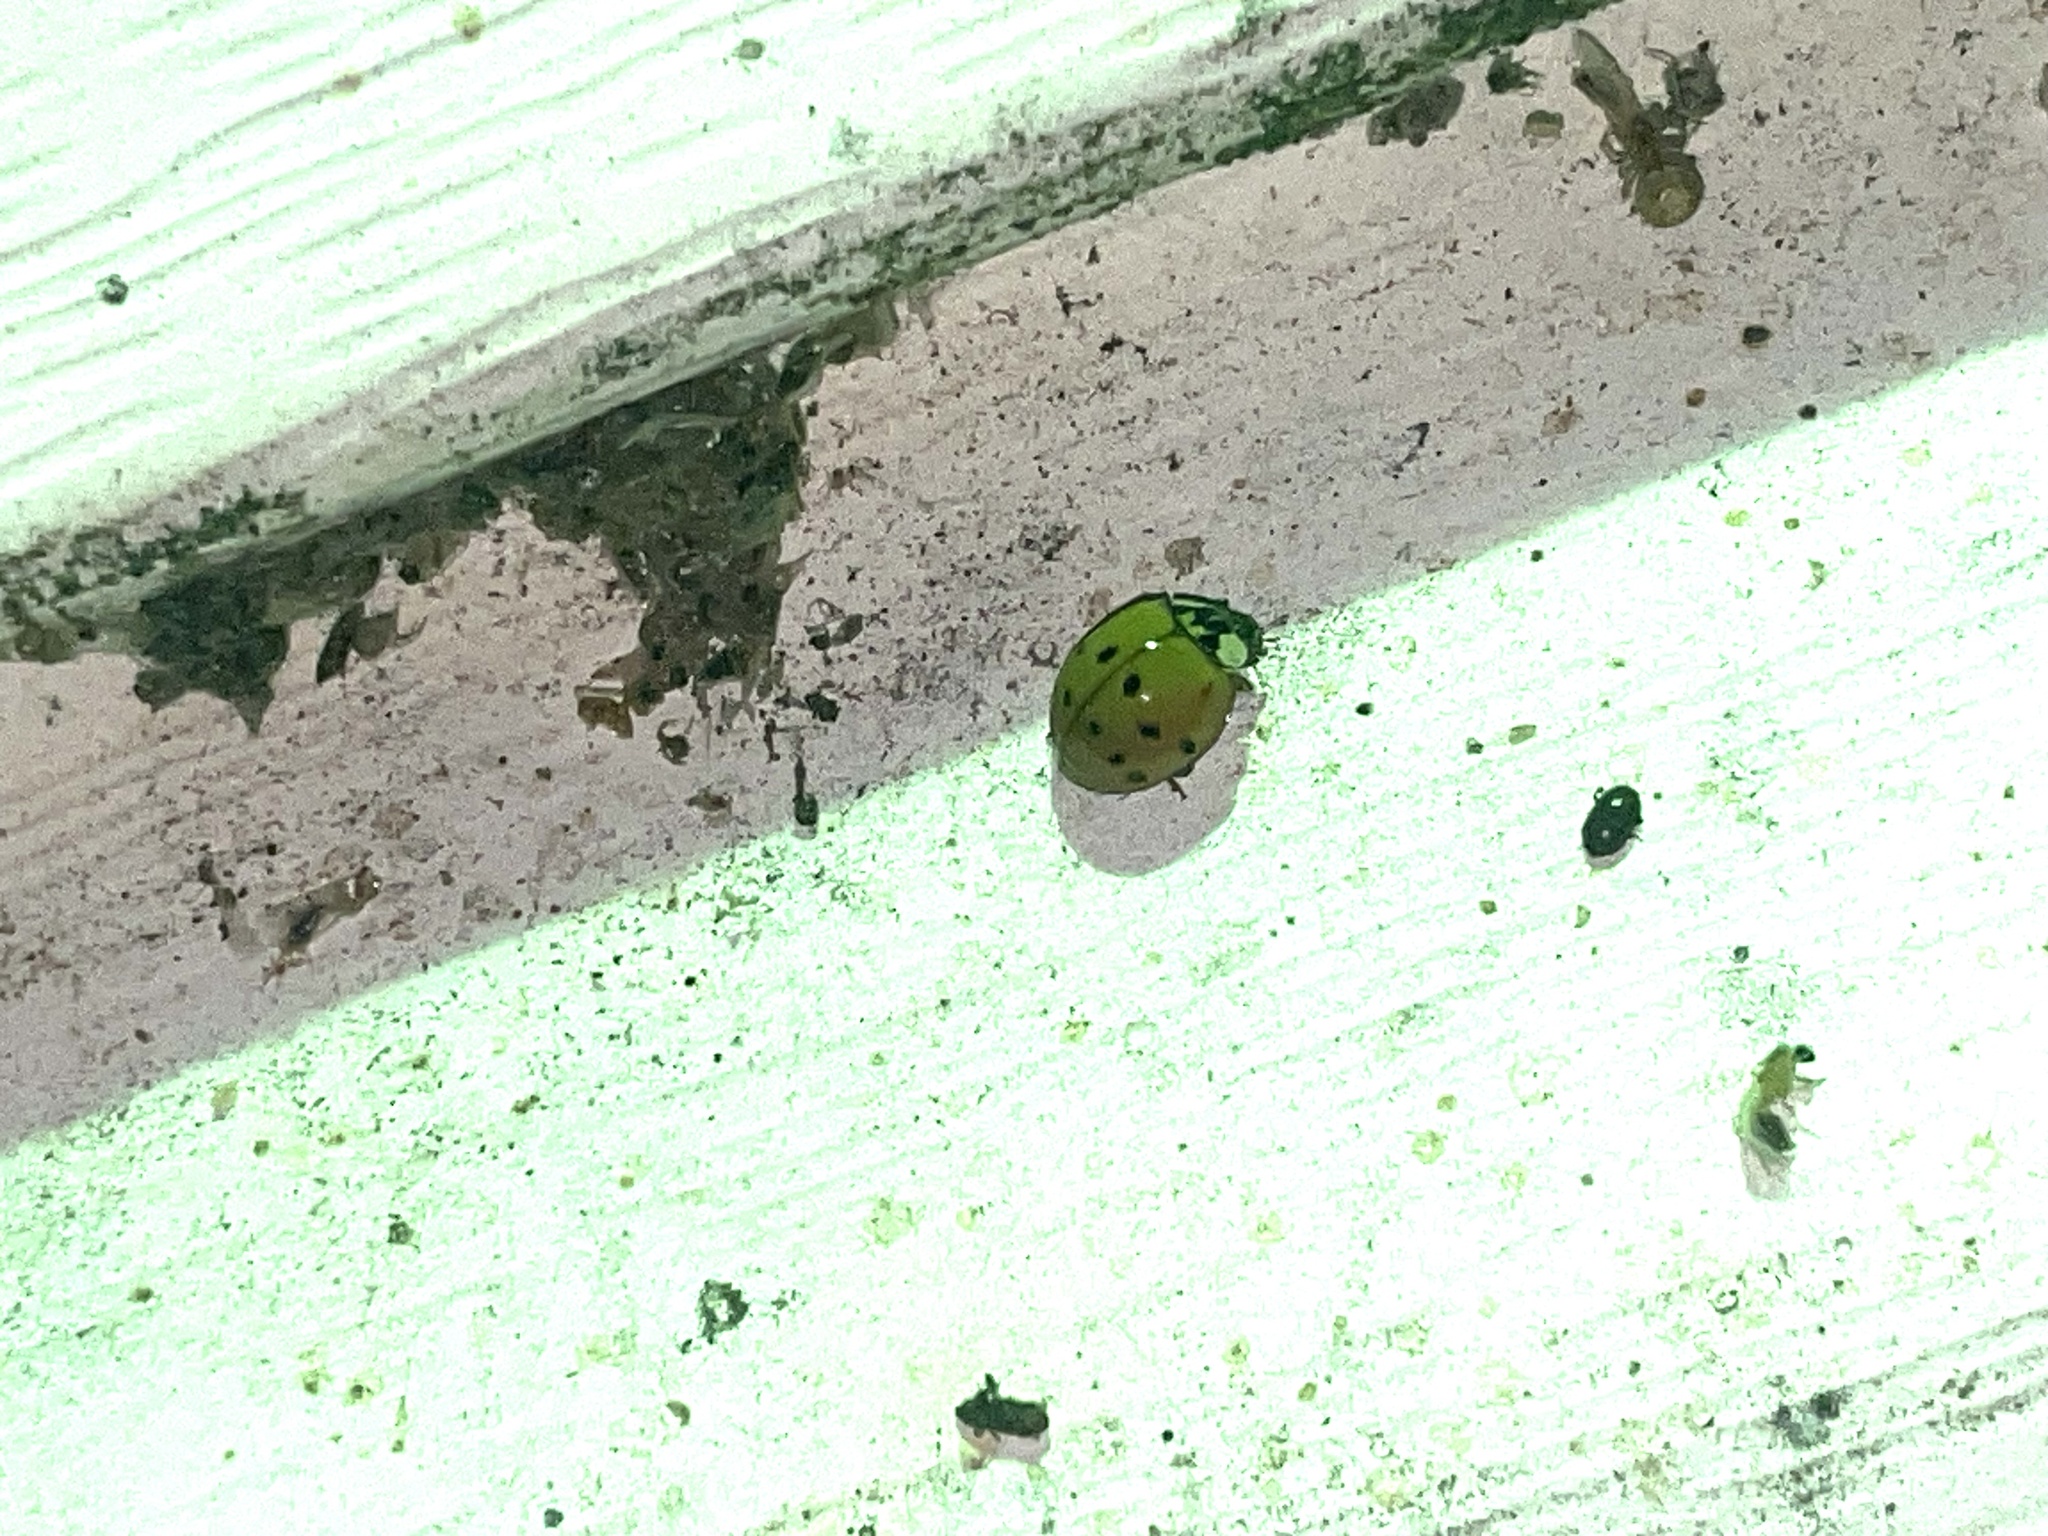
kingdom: Animalia
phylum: Arthropoda
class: Insecta
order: Coleoptera
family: Coccinellidae
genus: Harmonia
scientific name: Harmonia axyridis
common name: Harlequin ladybird
